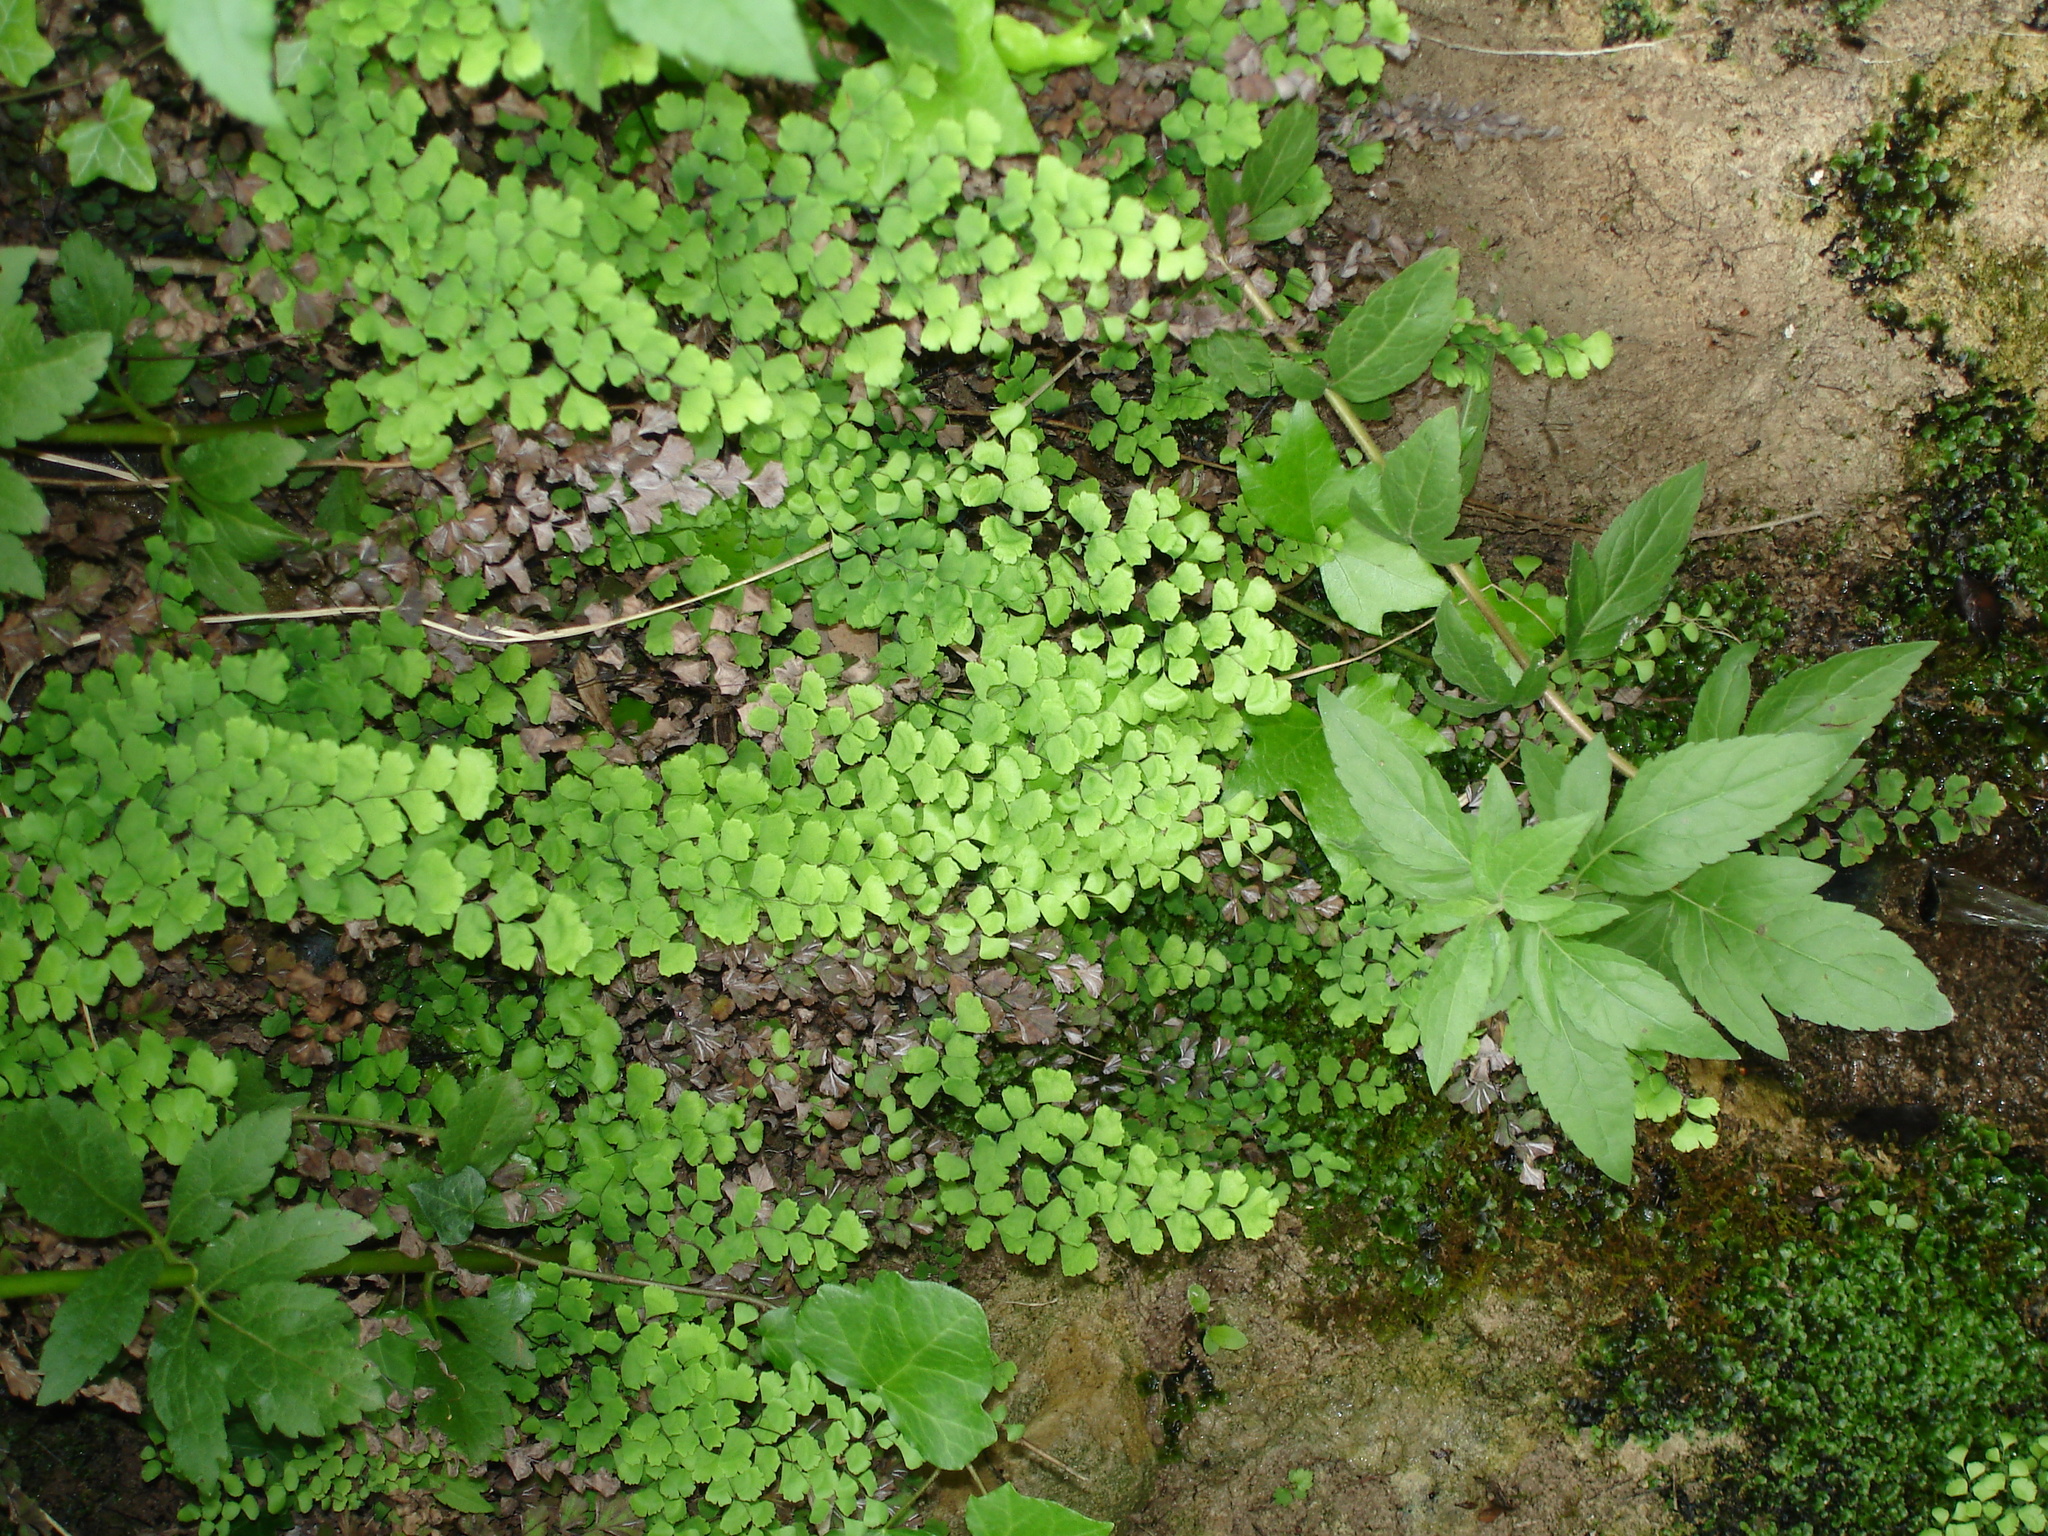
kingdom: Plantae
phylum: Tracheophyta
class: Polypodiopsida
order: Polypodiales
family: Pteridaceae
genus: Adiantum
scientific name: Adiantum capillus-veneris
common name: Maidenhair fern
